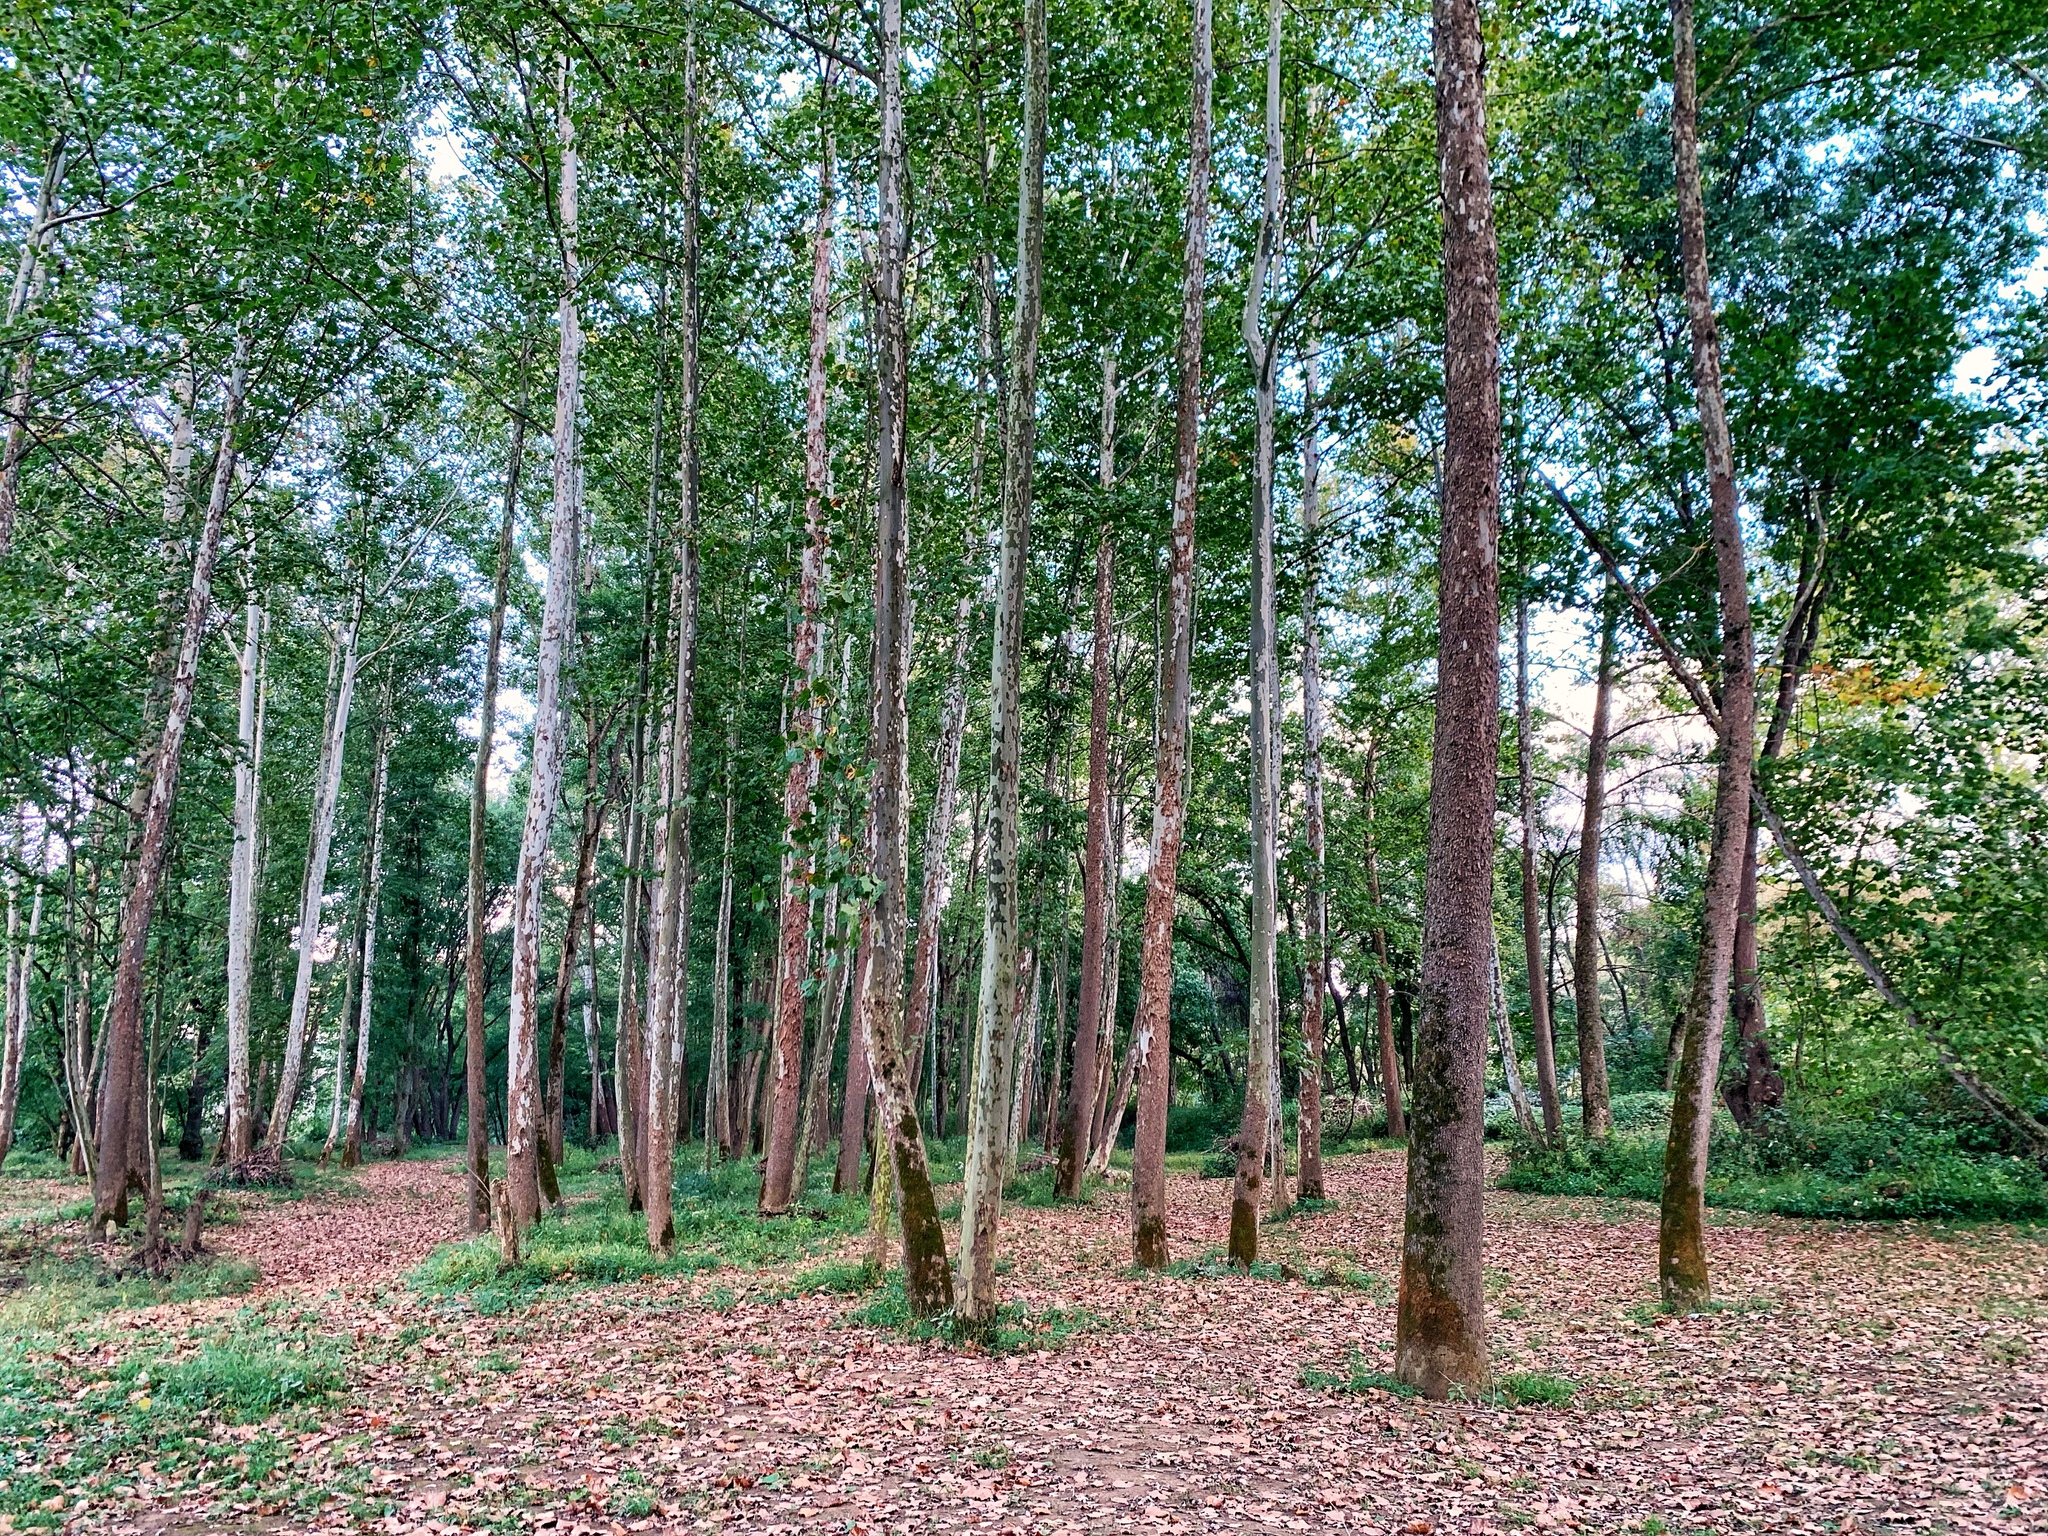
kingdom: Plantae
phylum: Tracheophyta
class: Magnoliopsida
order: Proteales
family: Platanaceae
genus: Platanus
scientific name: Platanus occidentalis
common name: American sycamore
